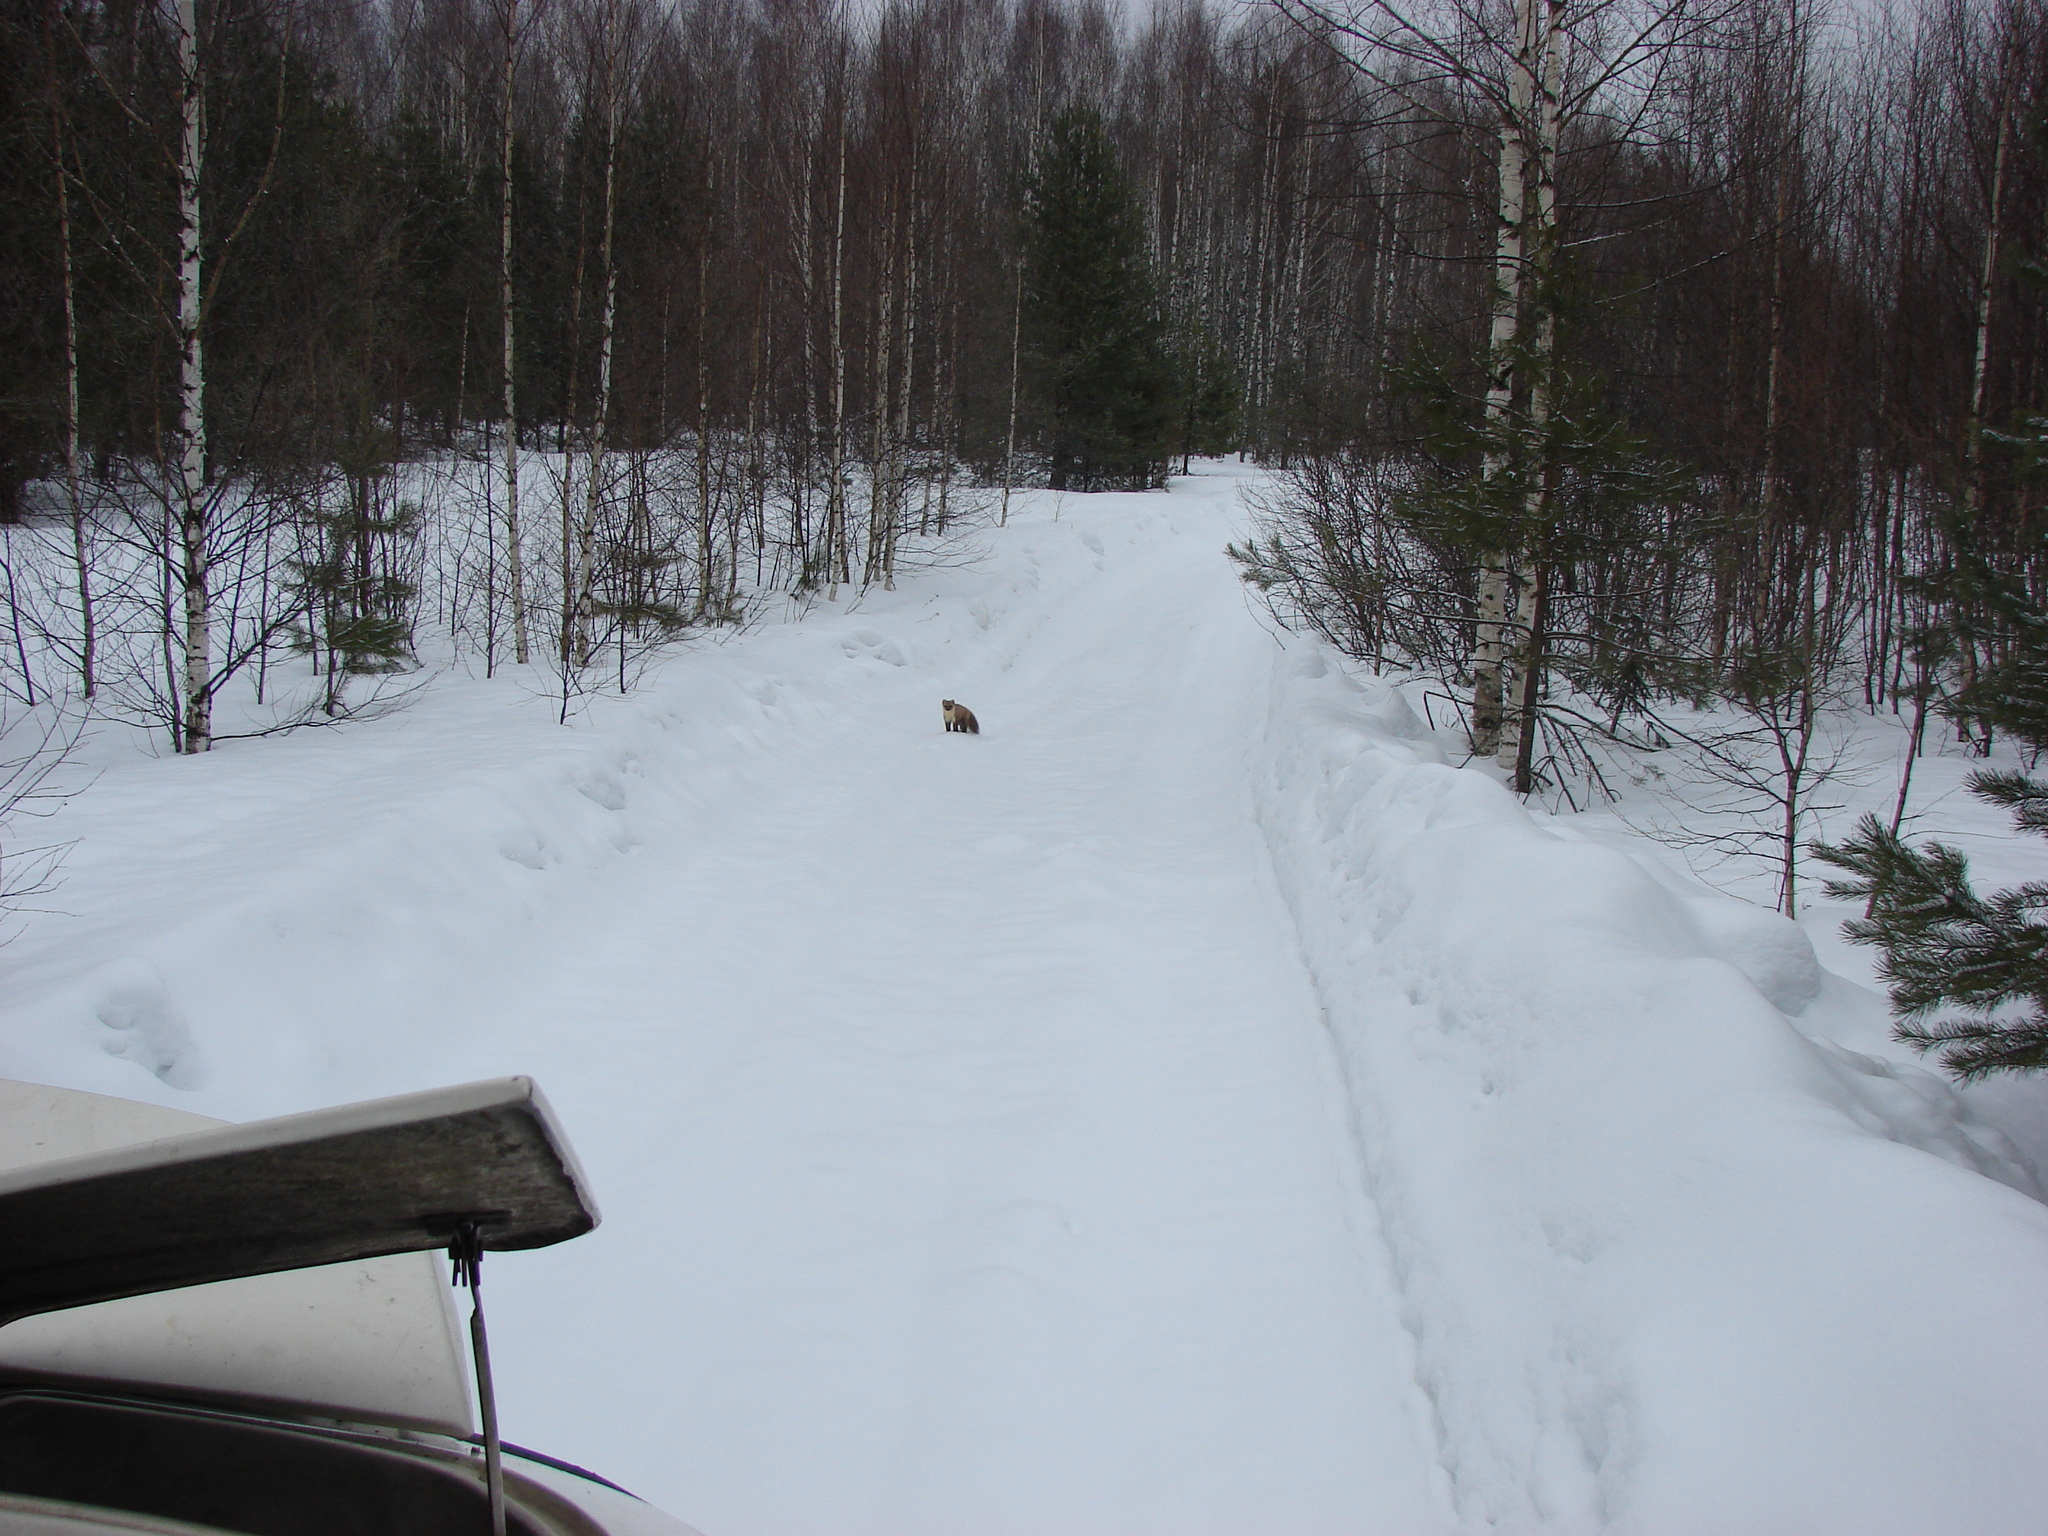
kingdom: Animalia
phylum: Chordata
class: Mammalia
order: Carnivora
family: Mustelidae
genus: Martes
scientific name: Martes martes
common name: European pine marten
